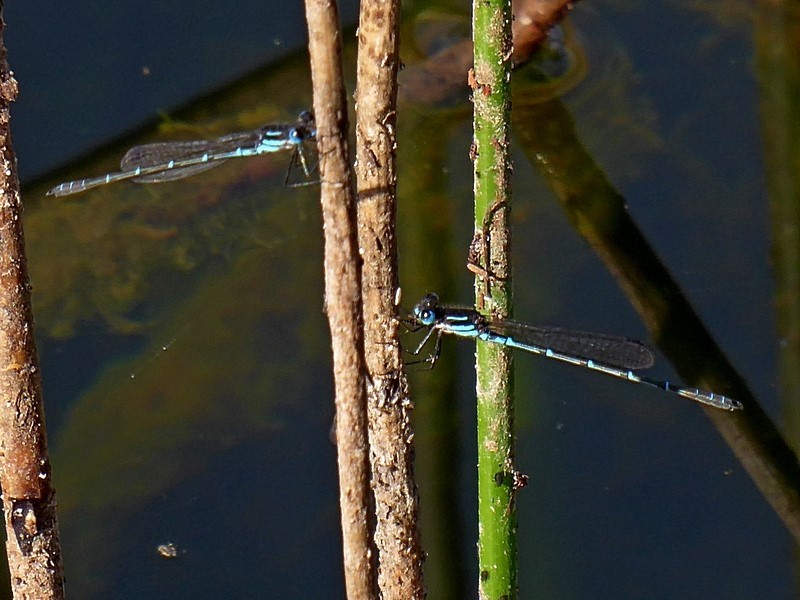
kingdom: Animalia
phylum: Arthropoda
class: Insecta
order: Odonata
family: Lestidae
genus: Austrolestes
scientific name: Austrolestes psyche
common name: Cup ringtail
